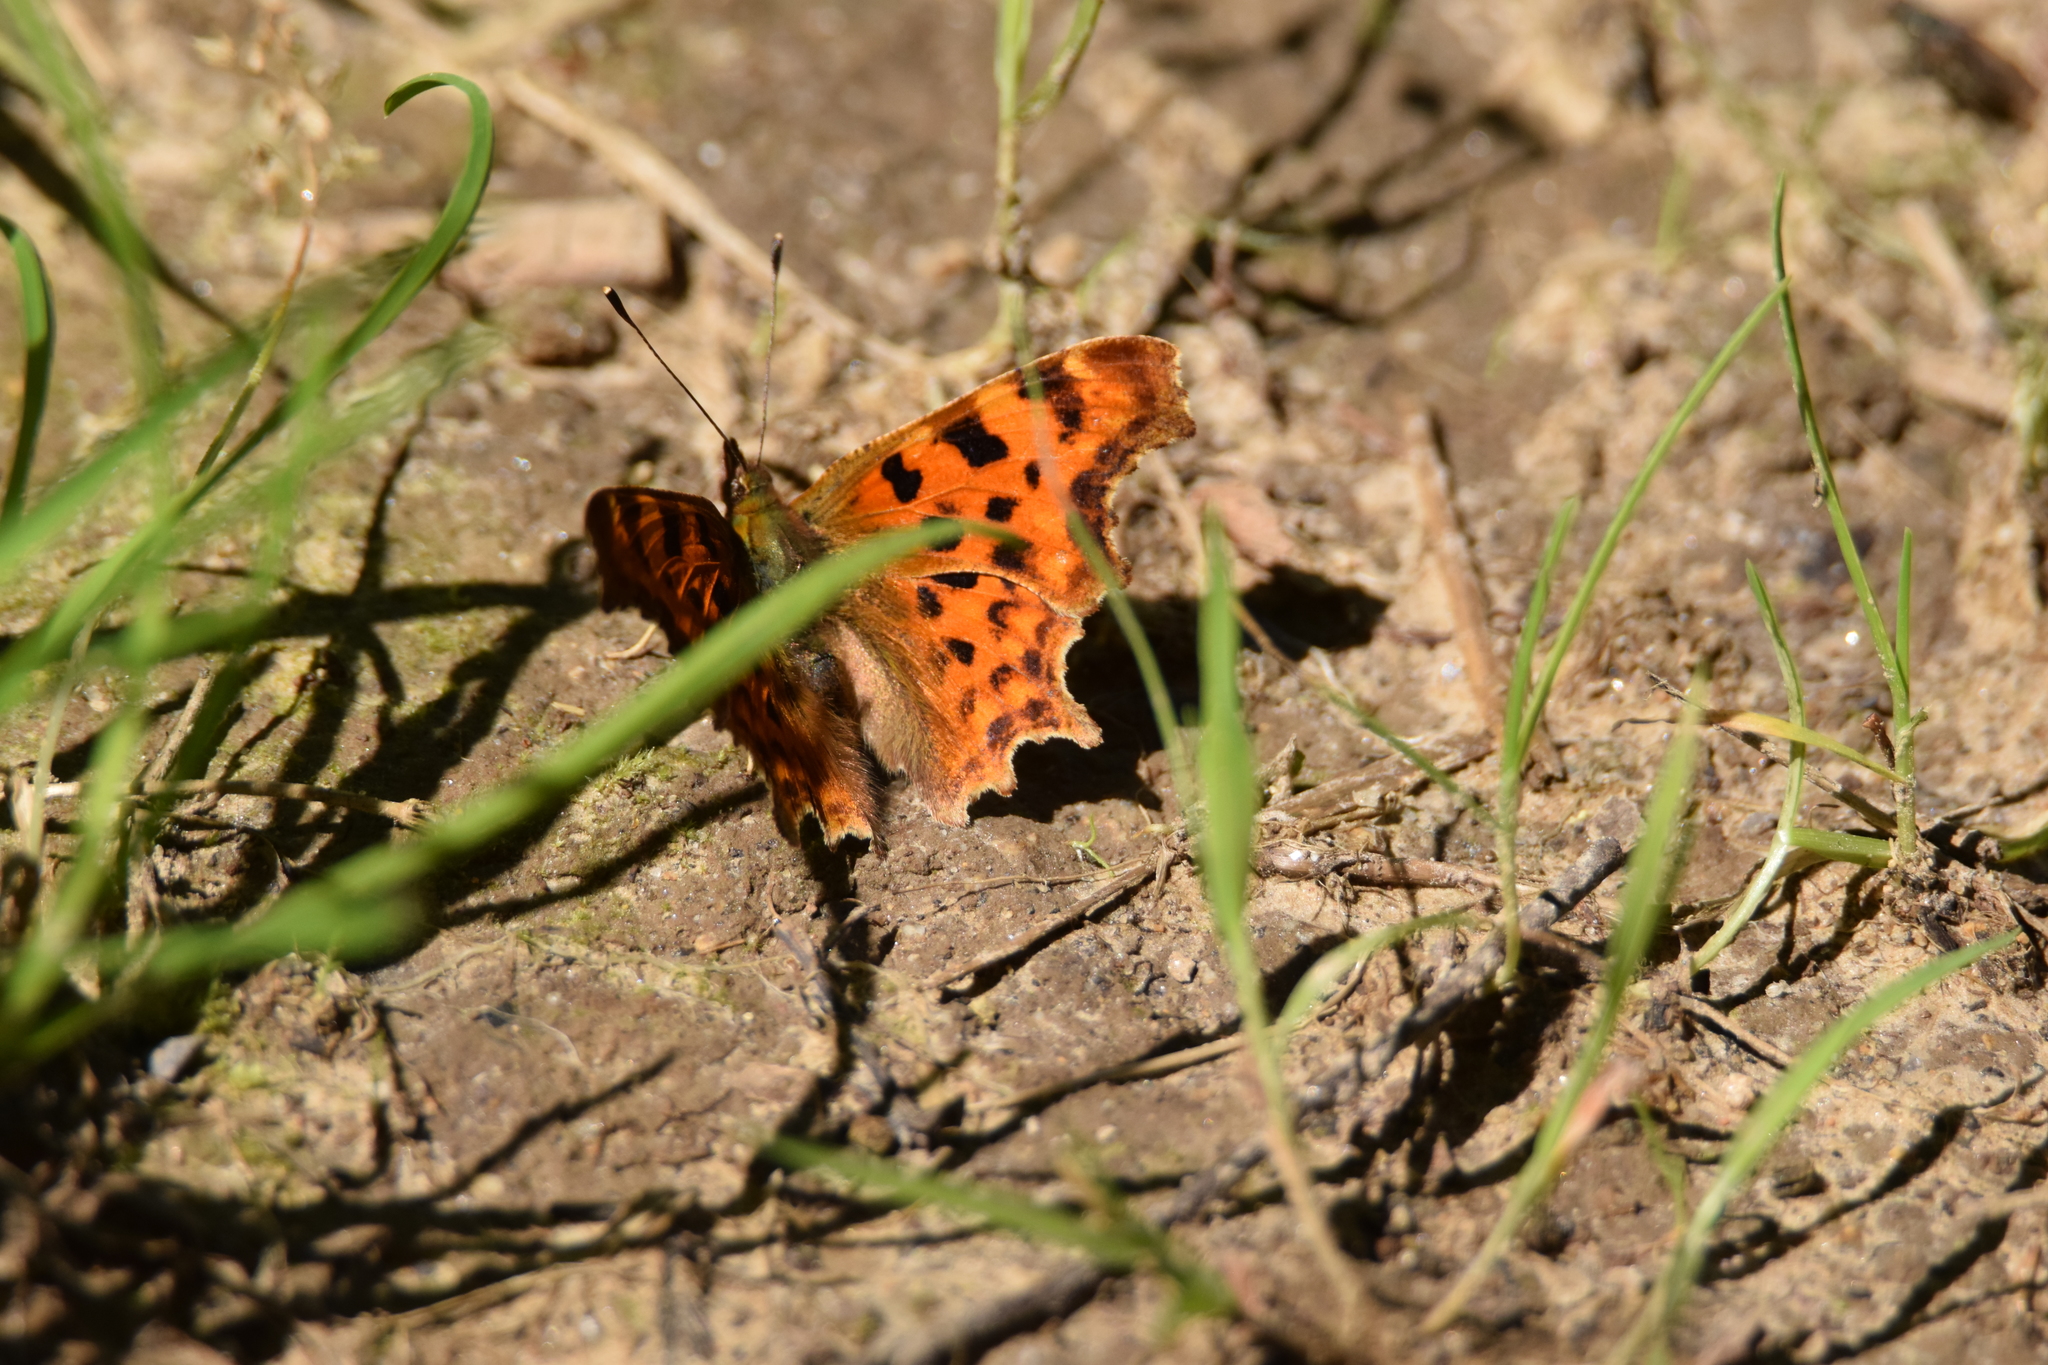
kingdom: Animalia
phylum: Arthropoda
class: Insecta
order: Lepidoptera
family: Nymphalidae
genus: Polygonia
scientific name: Polygonia c-album
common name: Comma
